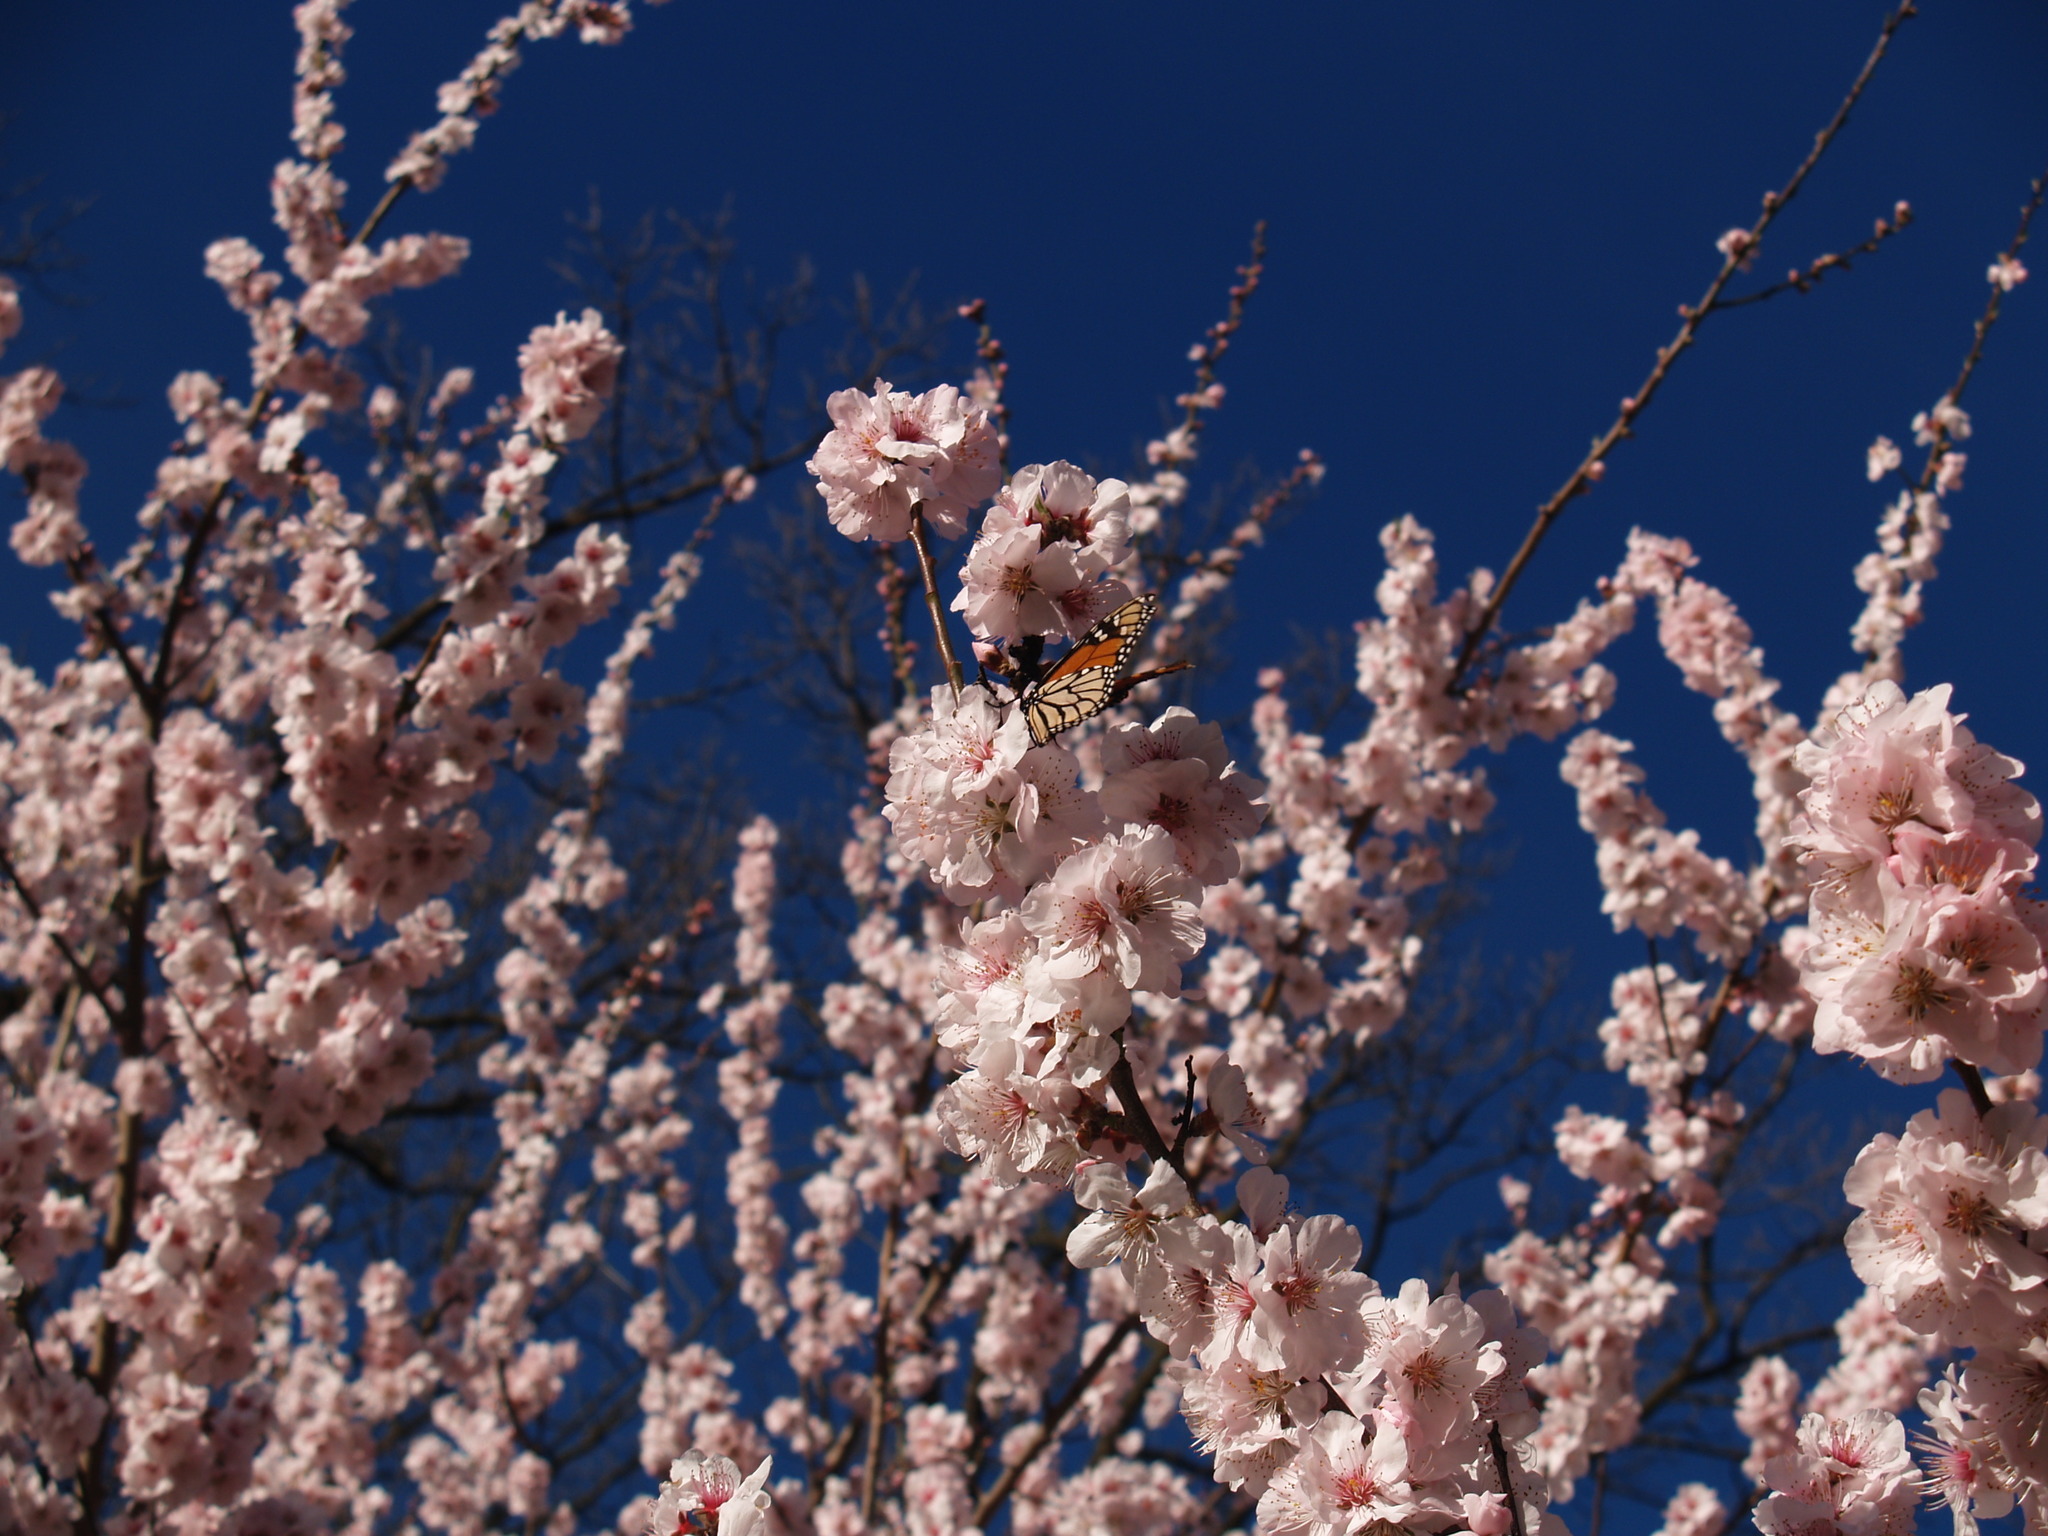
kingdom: Animalia
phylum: Arthropoda
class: Insecta
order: Lepidoptera
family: Nymphalidae
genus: Danaus
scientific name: Danaus plexippus
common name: Monarch
